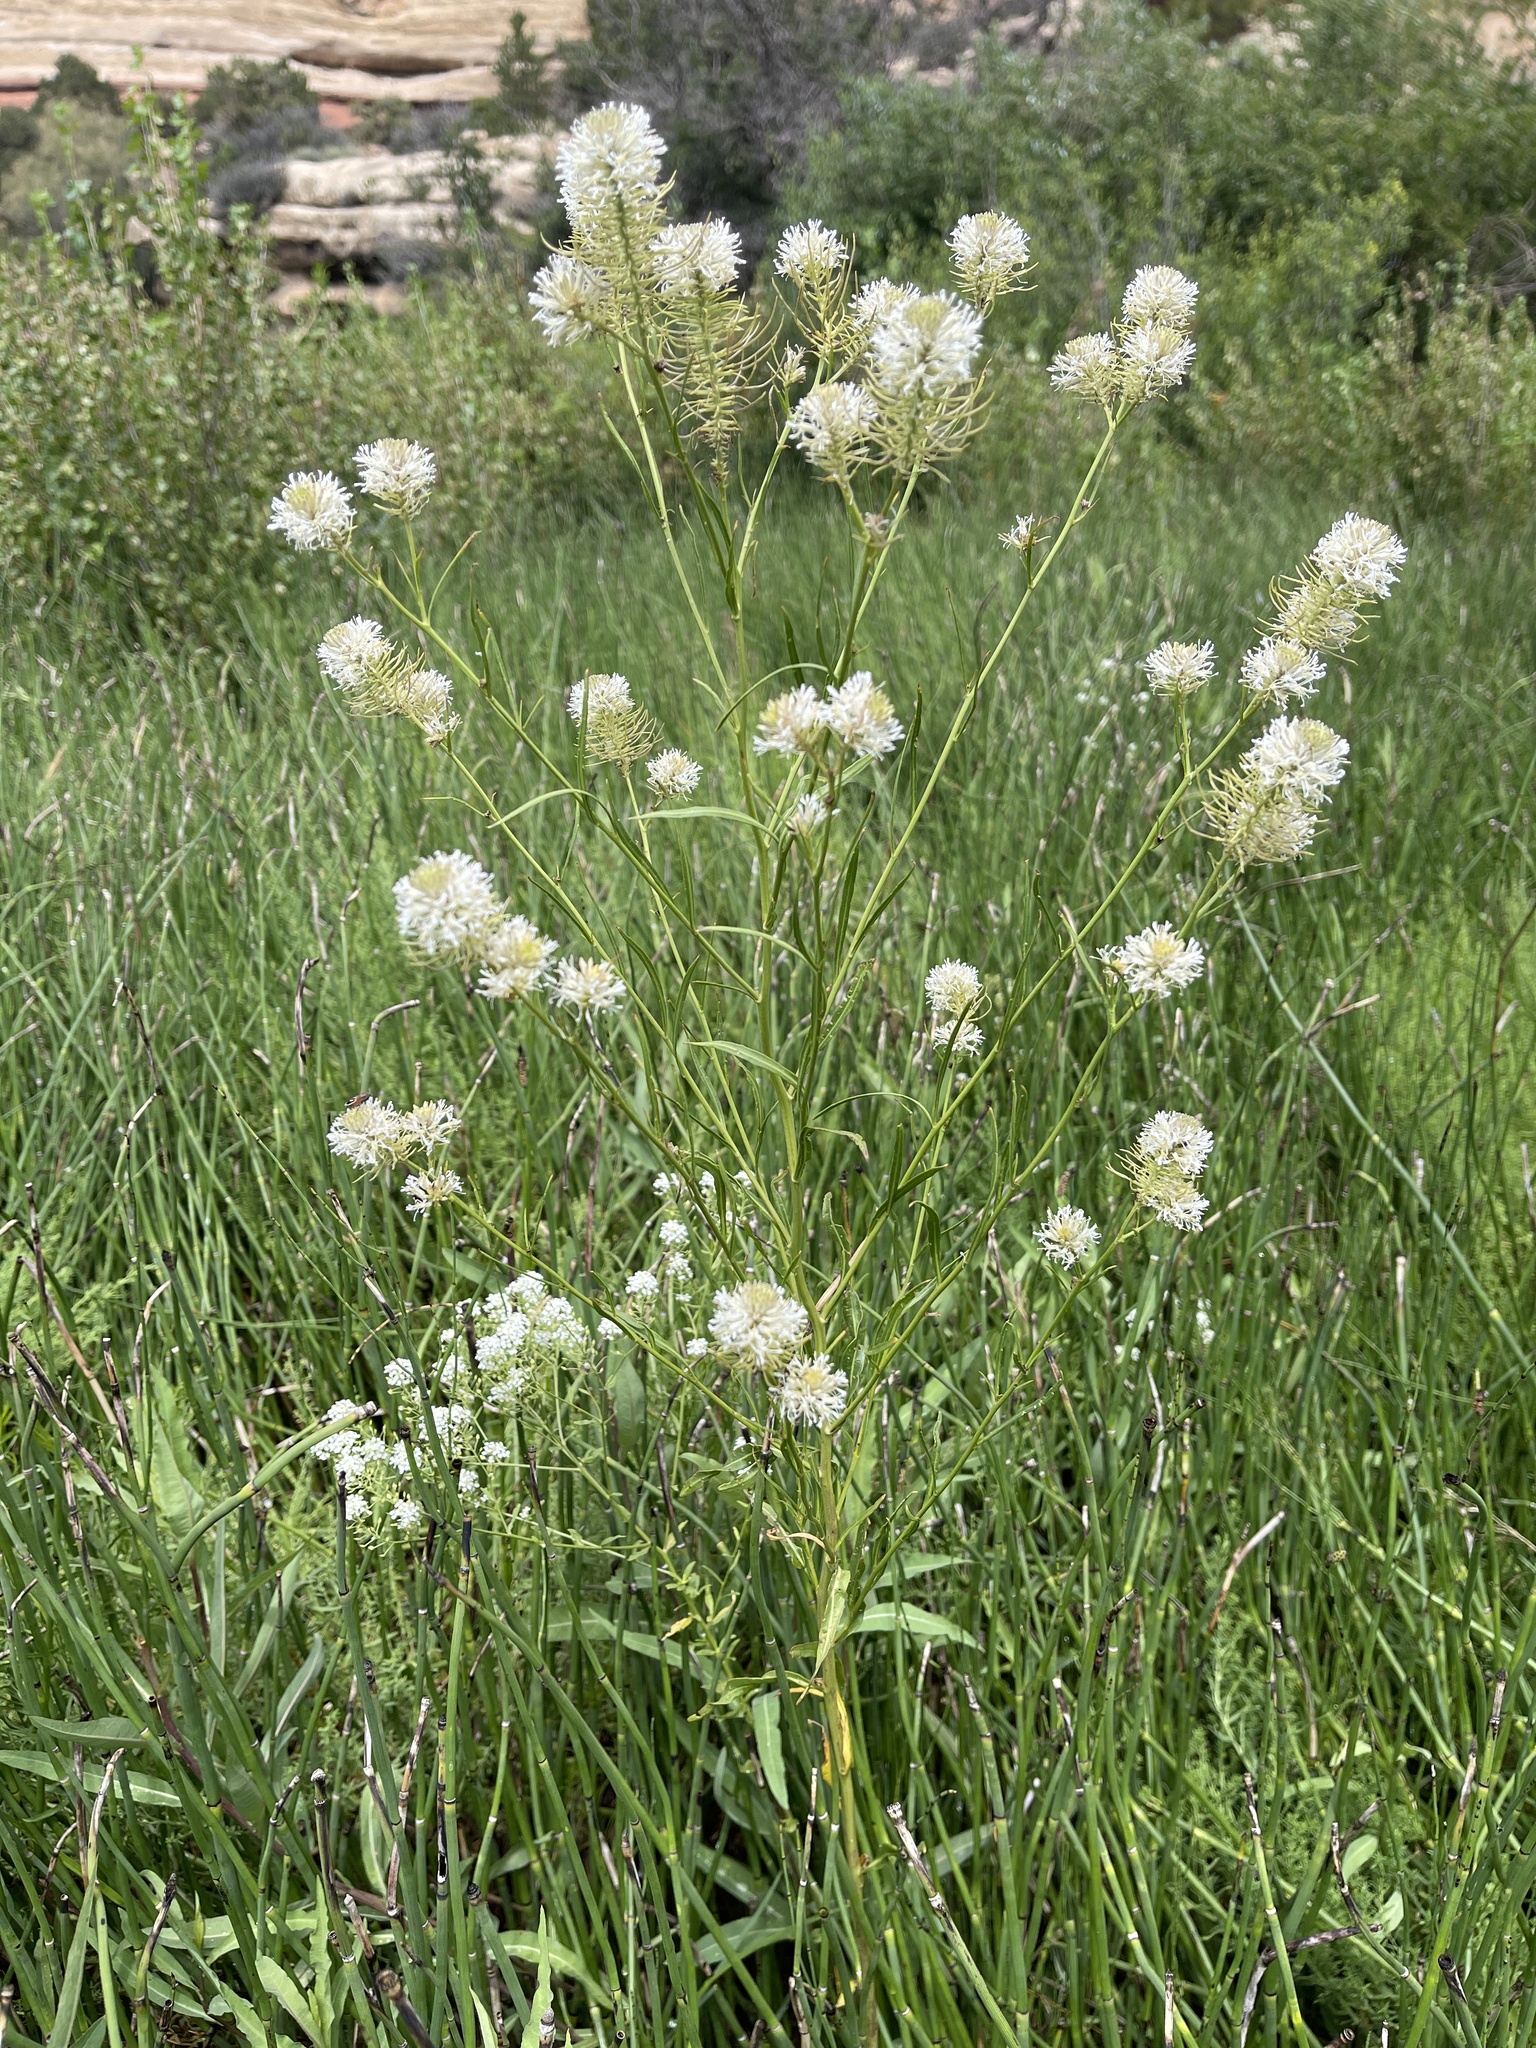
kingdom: Plantae
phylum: Tracheophyta
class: Magnoliopsida
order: Brassicales
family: Brassicaceae
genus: Thelypodium
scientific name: Thelypodium integrifolium
